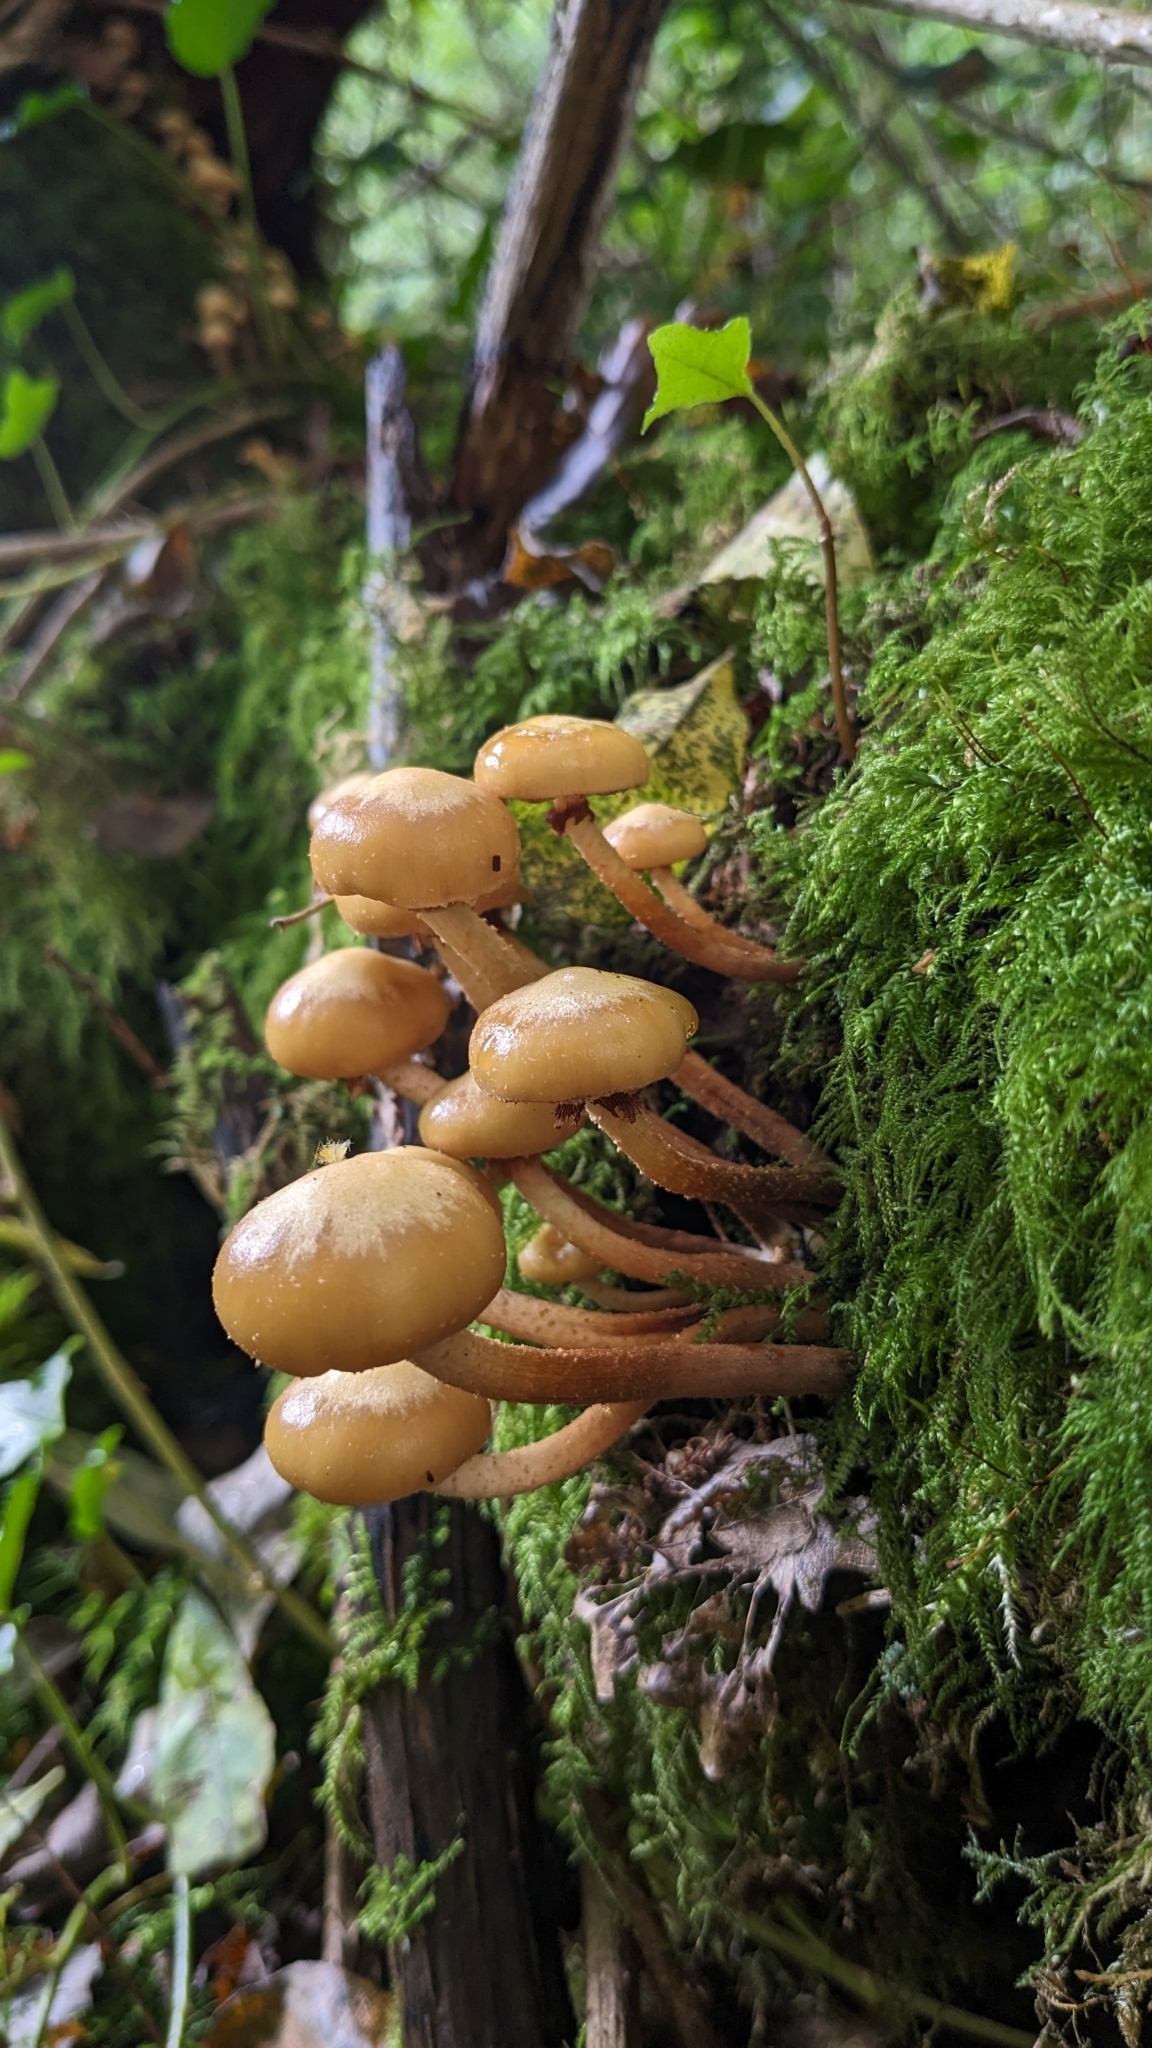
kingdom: Fungi
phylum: Basidiomycota
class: Agaricomycetes
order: Agaricales
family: Strophariaceae
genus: Kuehneromyces
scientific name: Kuehneromyces mutabilis
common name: Sheathed woodtuft
